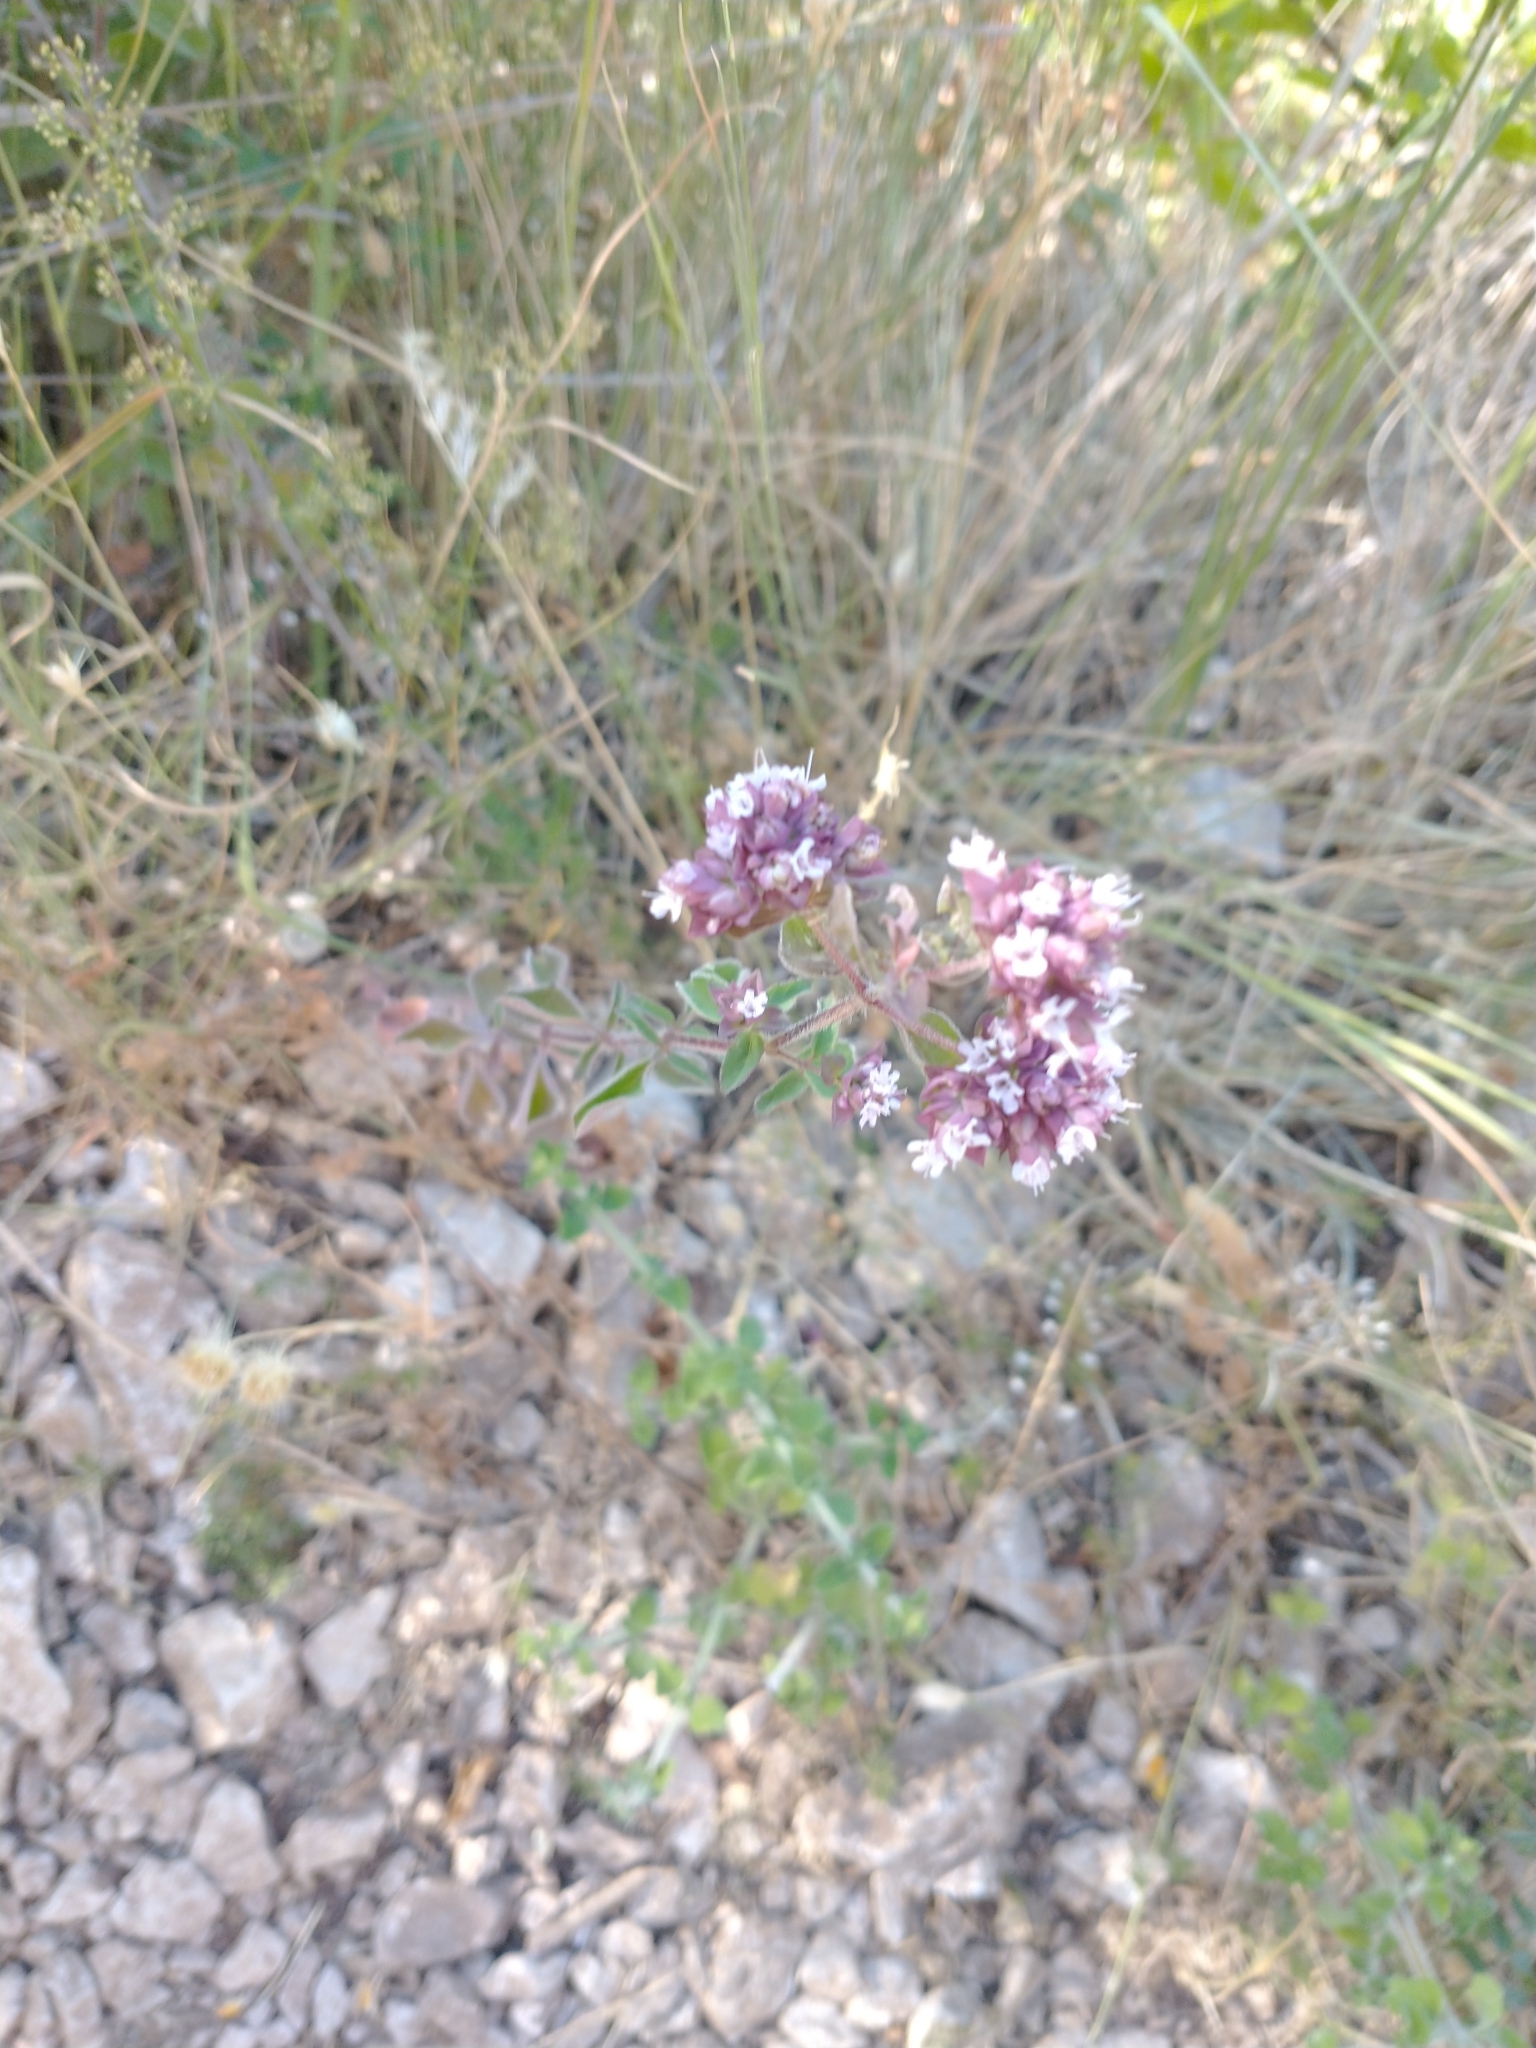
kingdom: Plantae
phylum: Tracheophyta
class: Magnoliopsida
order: Lamiales
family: Lamiaceae
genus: Origanum
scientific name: Origanum vulgare
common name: Wild marjoram
